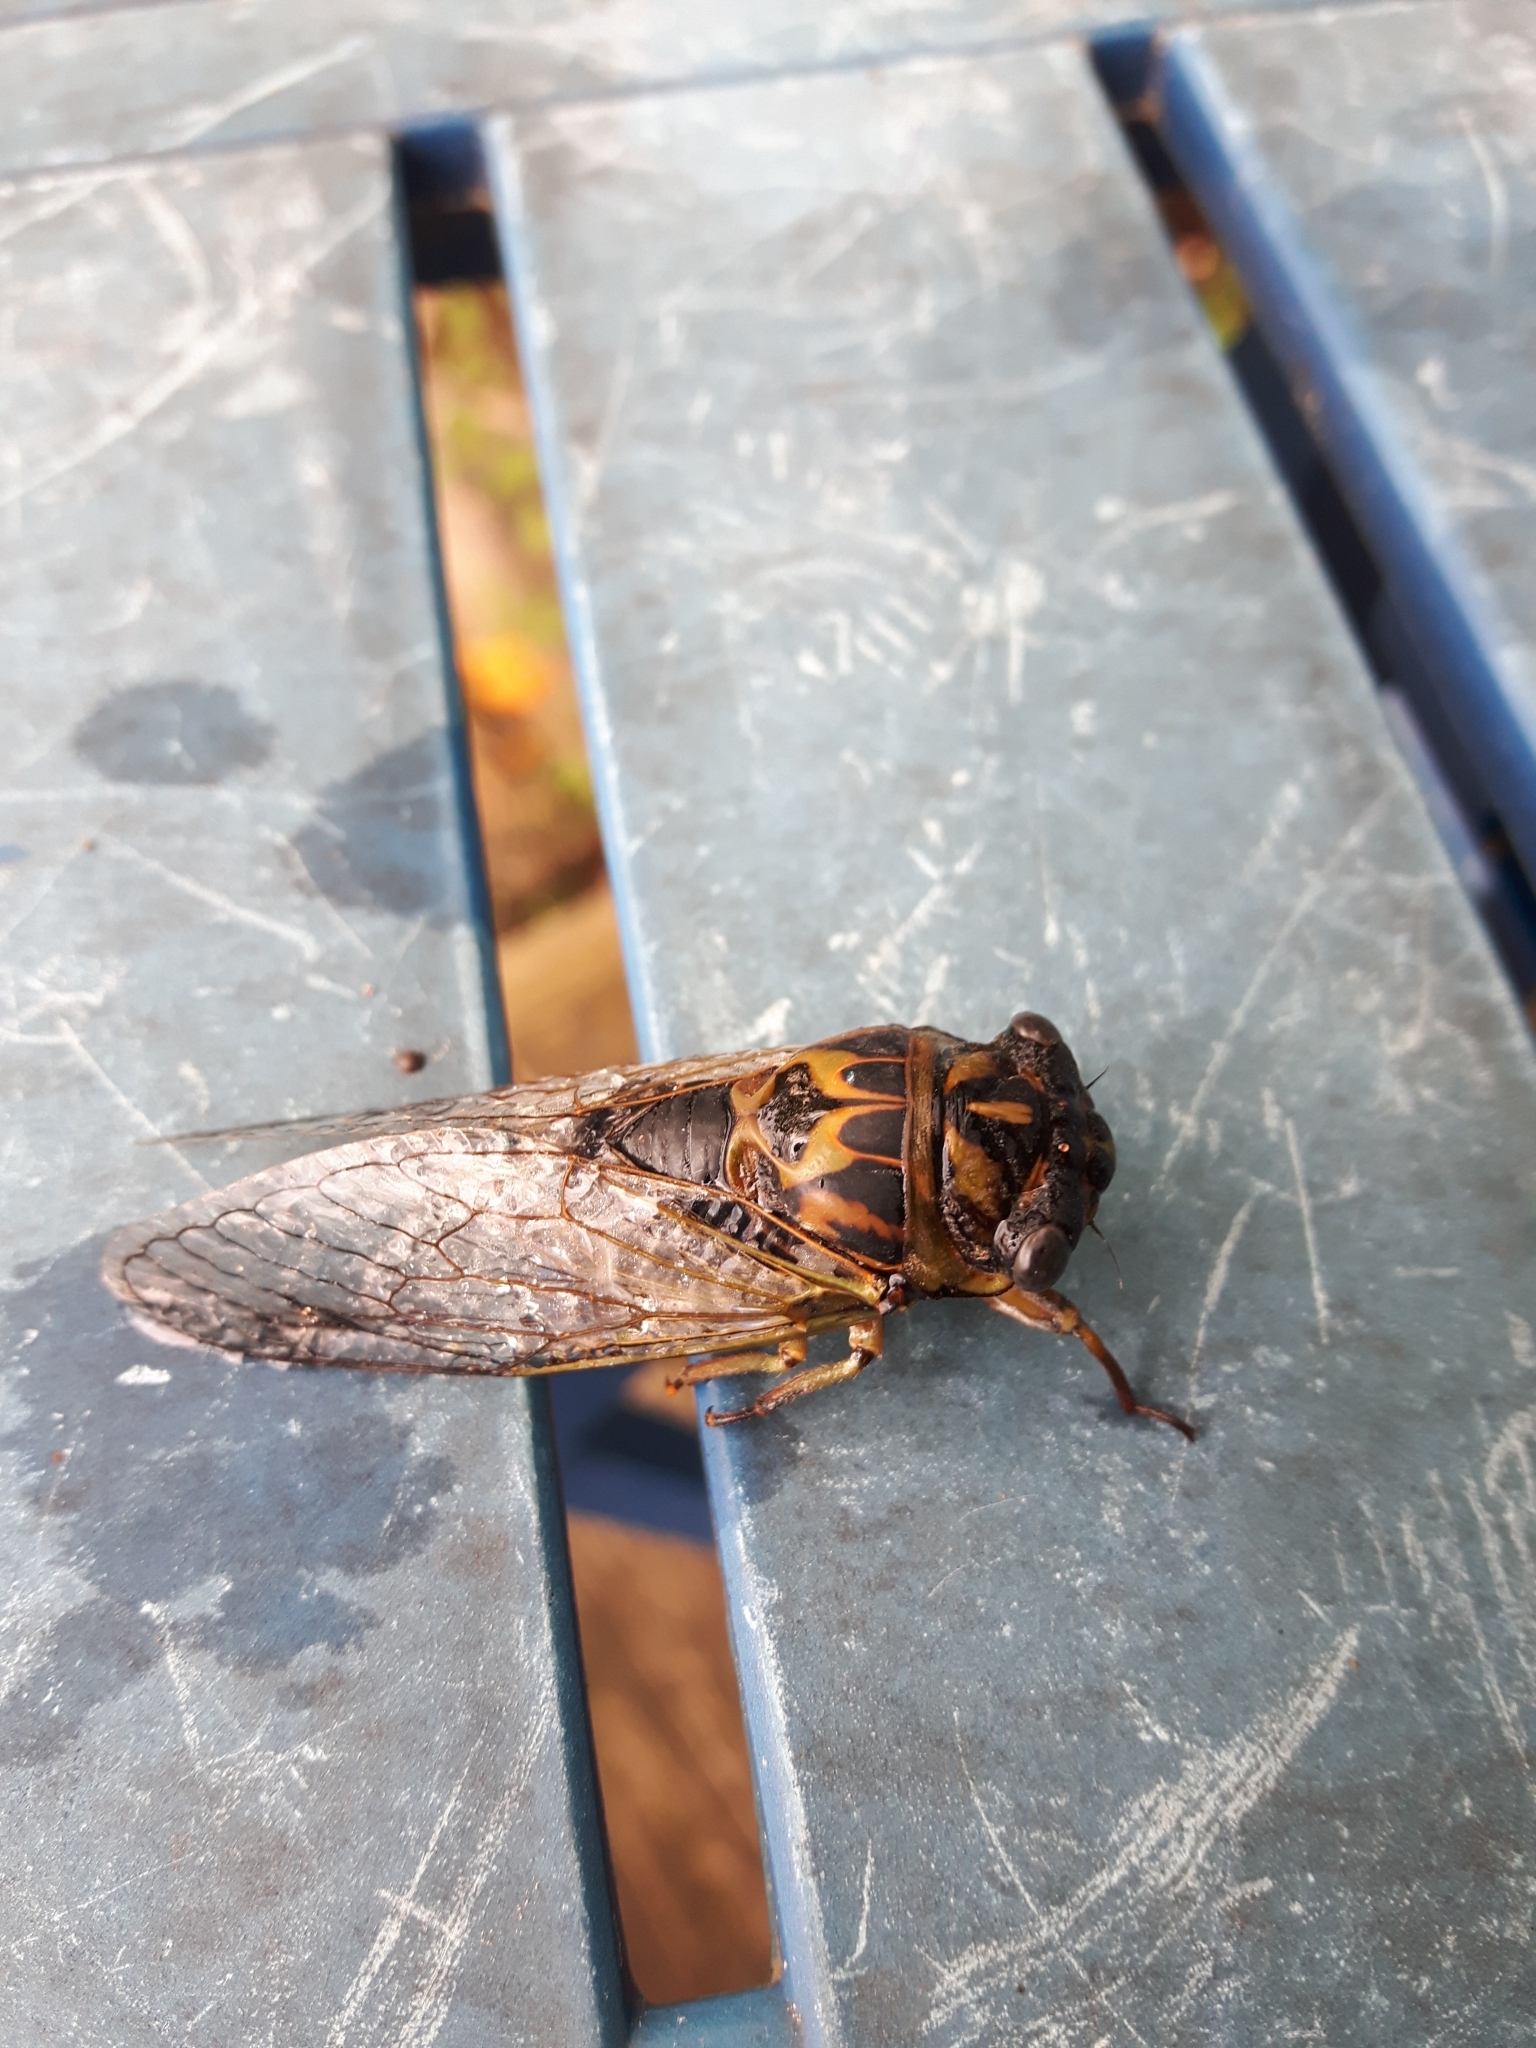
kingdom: Animalia
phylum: Arthropoda
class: Insecta
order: Hemiptera
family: Cicadidae
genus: Neotibicen
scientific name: Neotibicen canicularis
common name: God-day cicada
